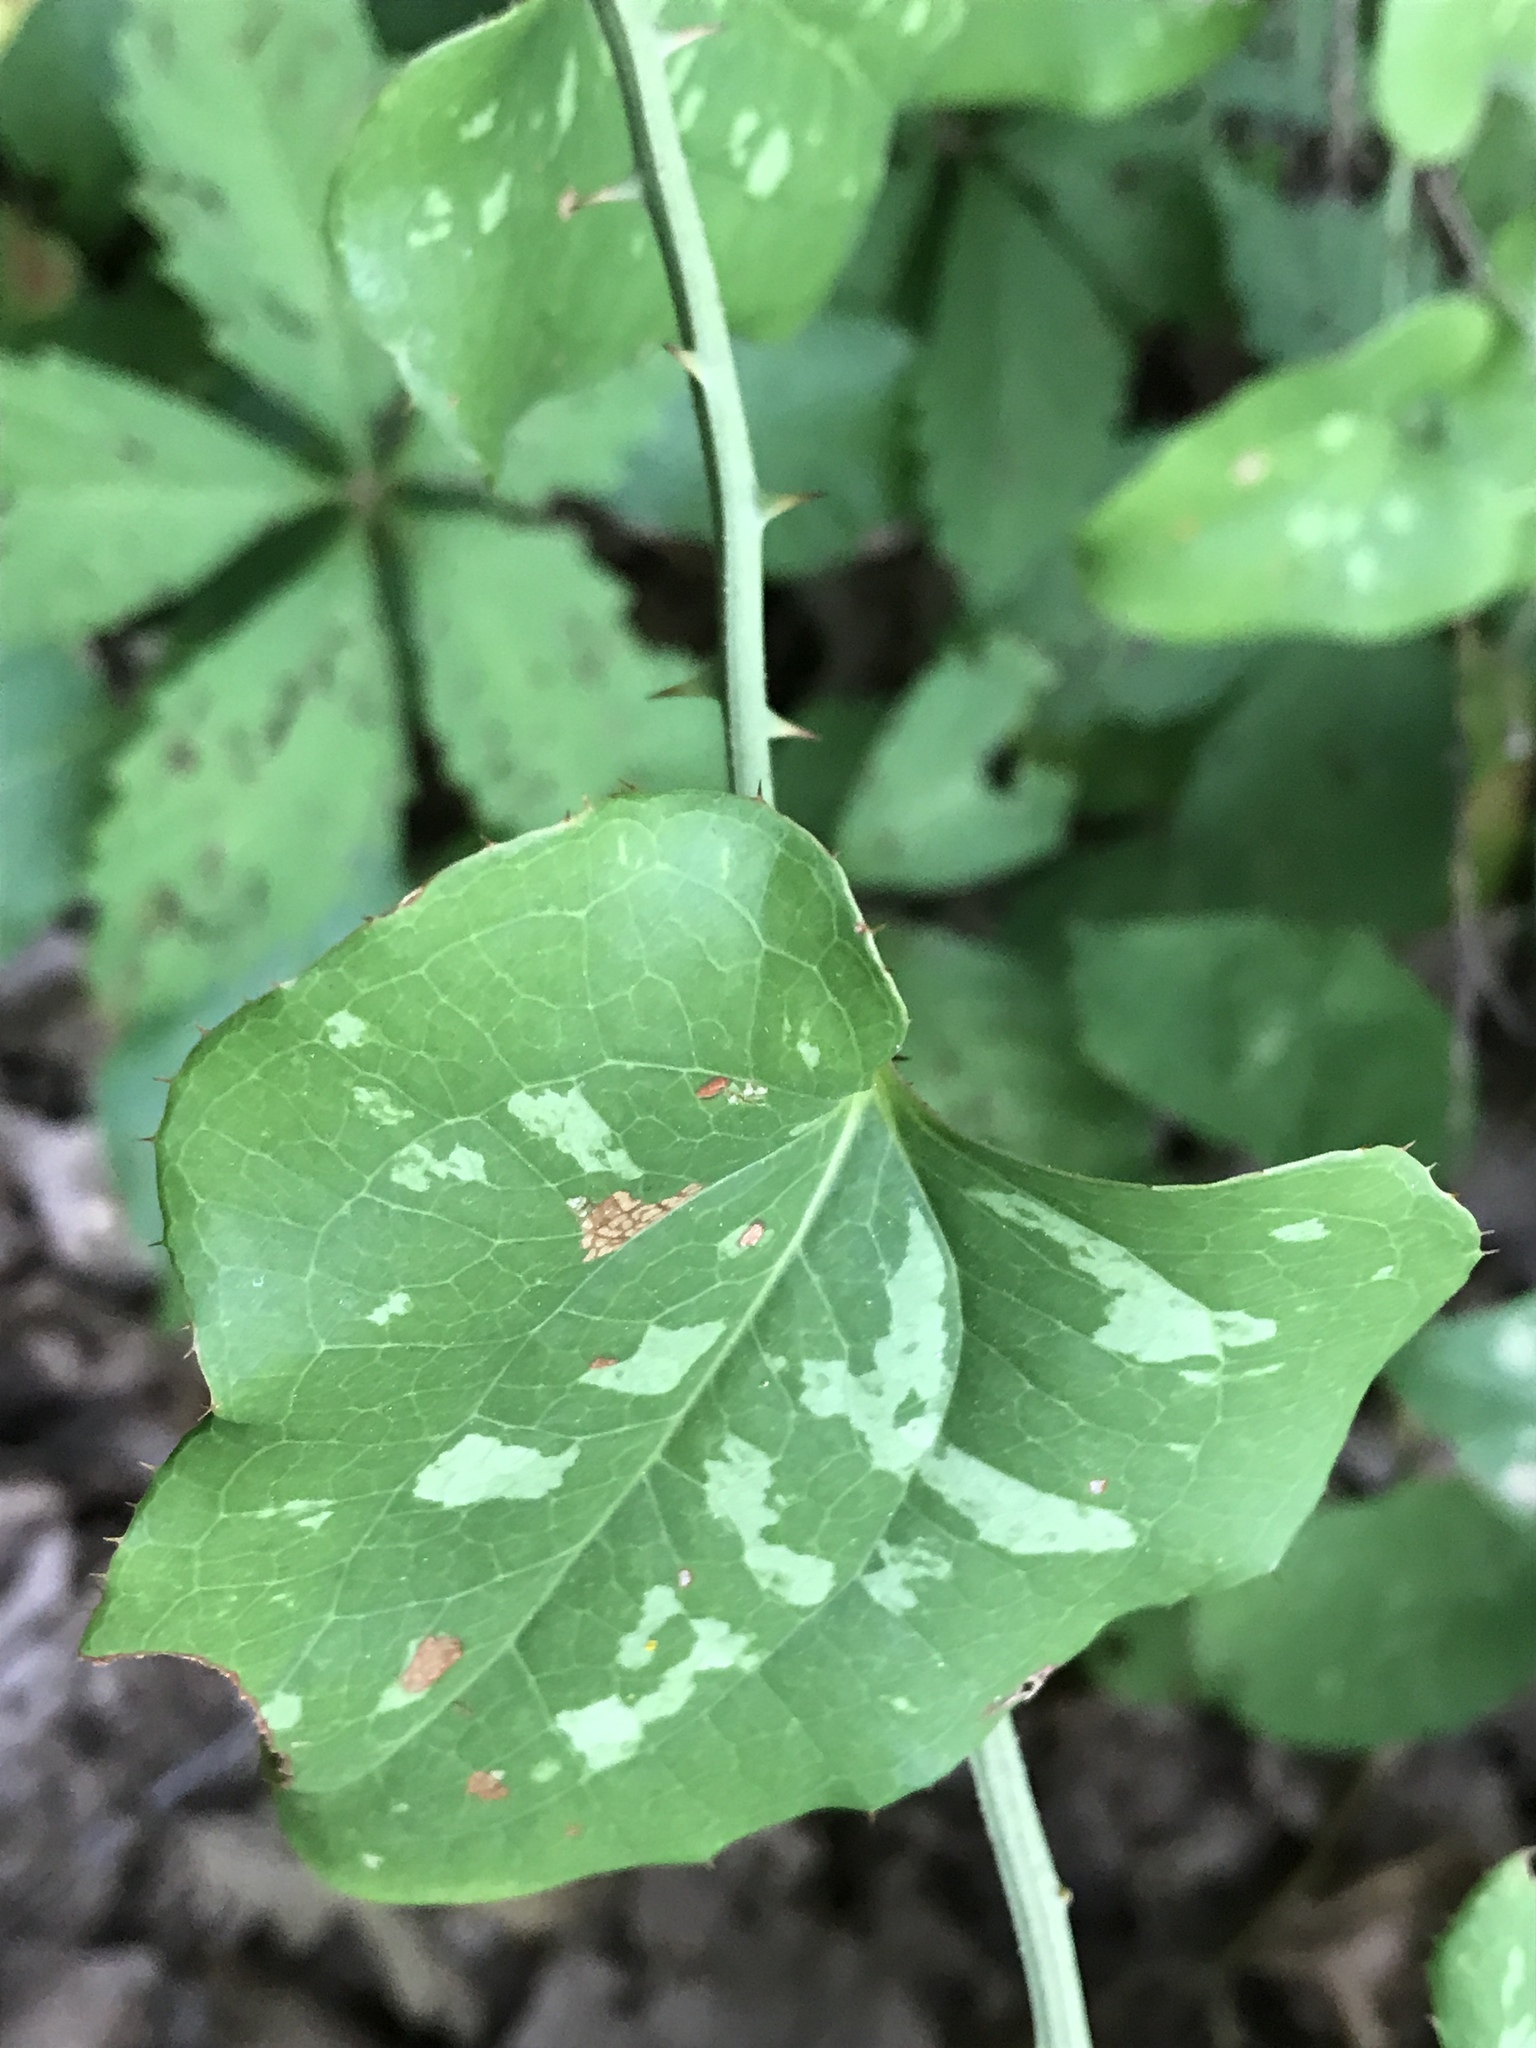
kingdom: Plantae
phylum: Tracheophyta
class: Liliopsida
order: Liliales
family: Smilacaceae
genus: Smilax
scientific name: Smilax bona-nox
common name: Catbrier
